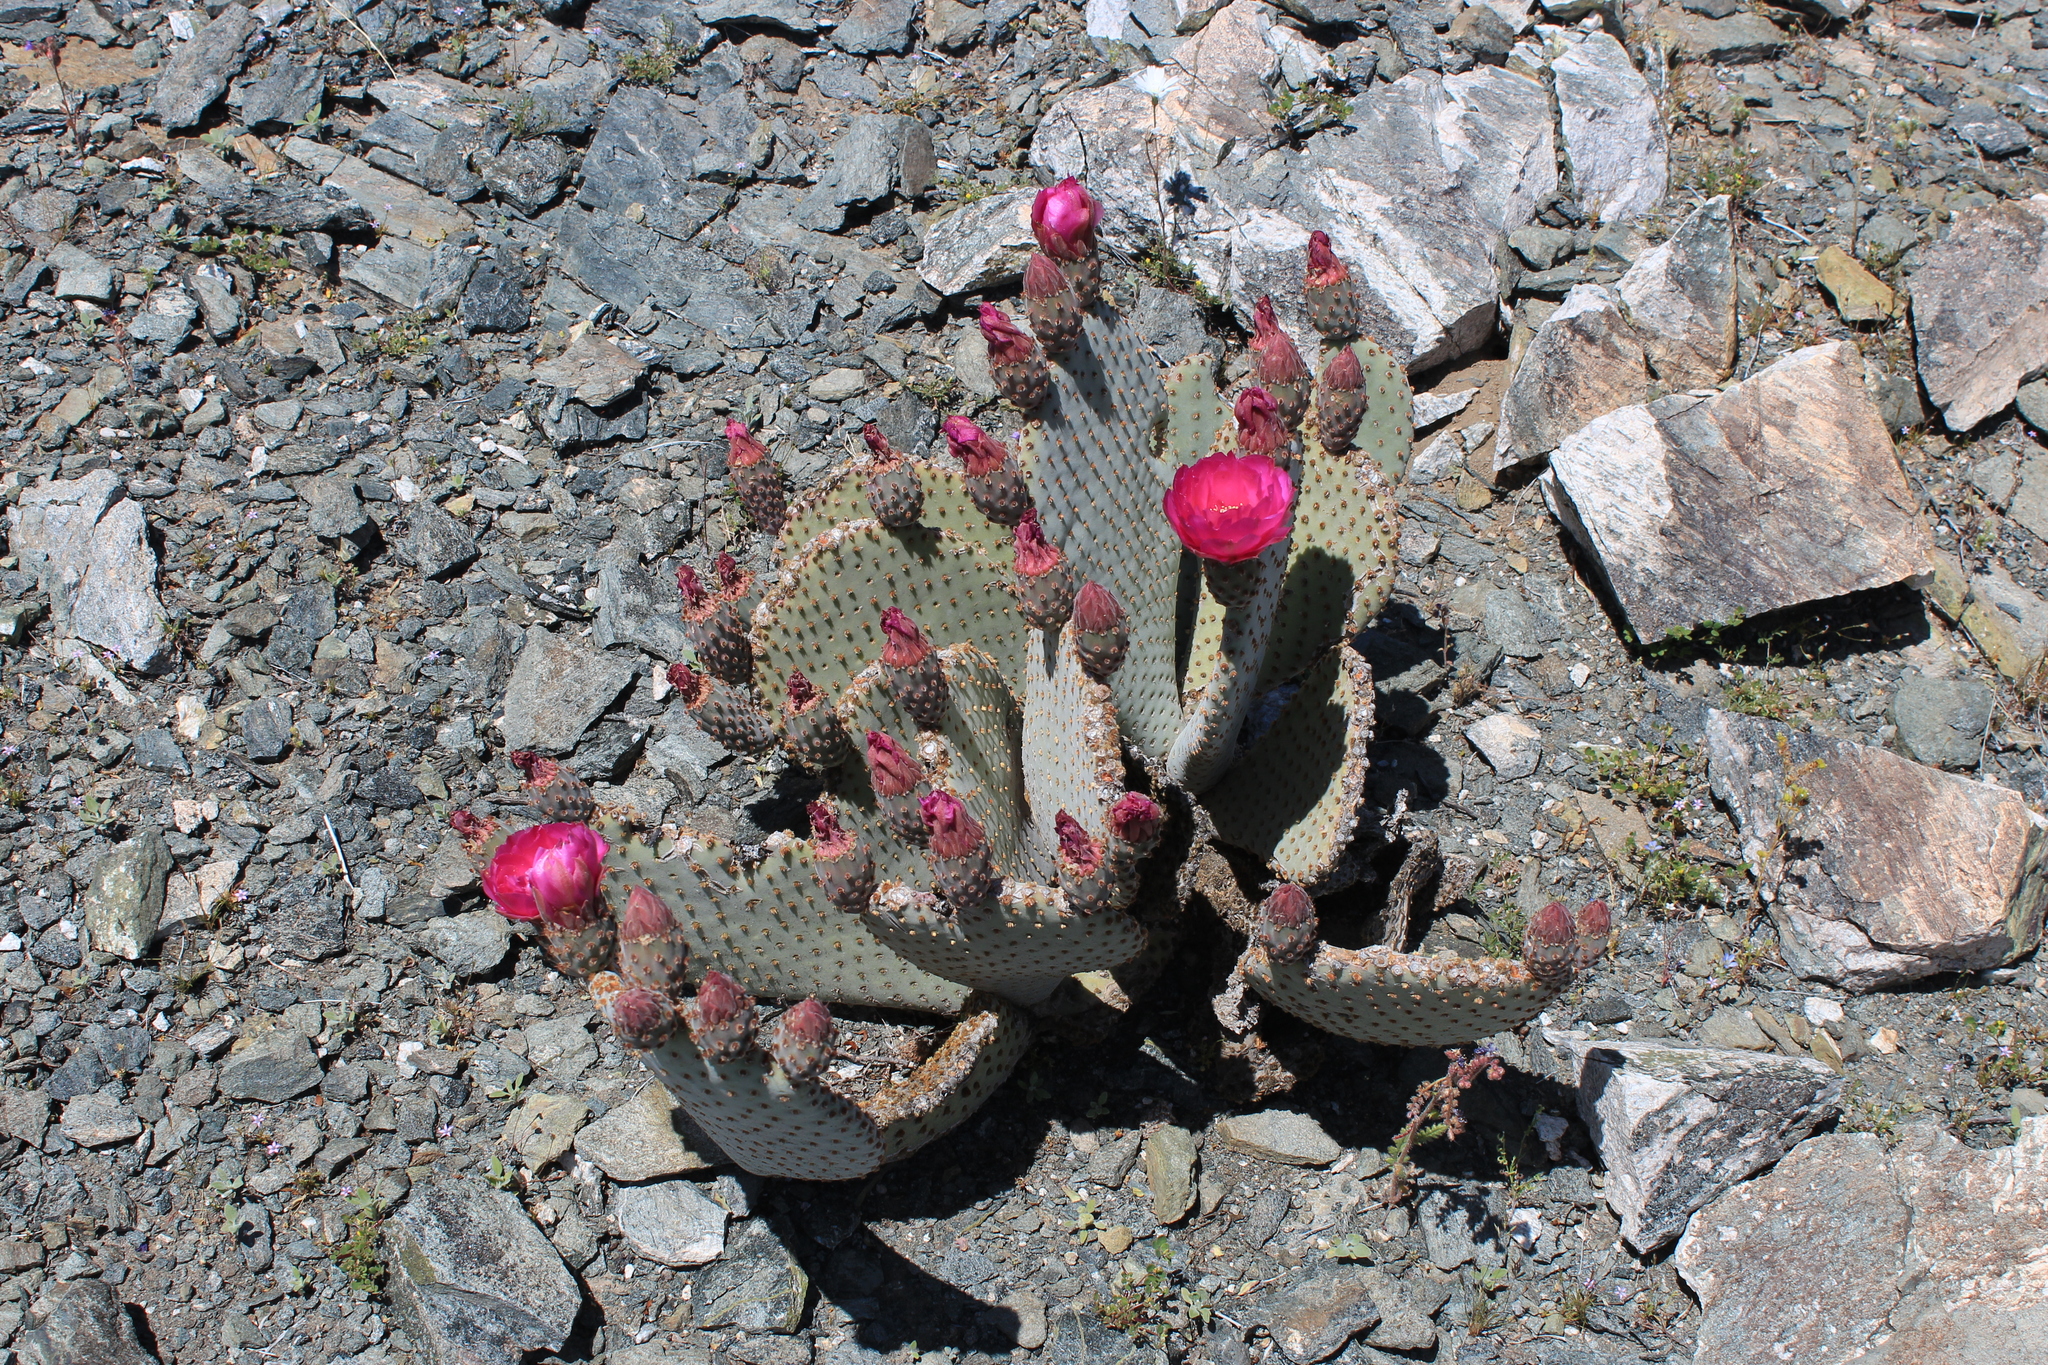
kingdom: Plantae
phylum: Tracheophyta
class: Magnoliopsida
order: Caryophyllales
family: Cactaceae
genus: Opuntia
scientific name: Opuntia basilaris
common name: Beavertail prickly-pear
